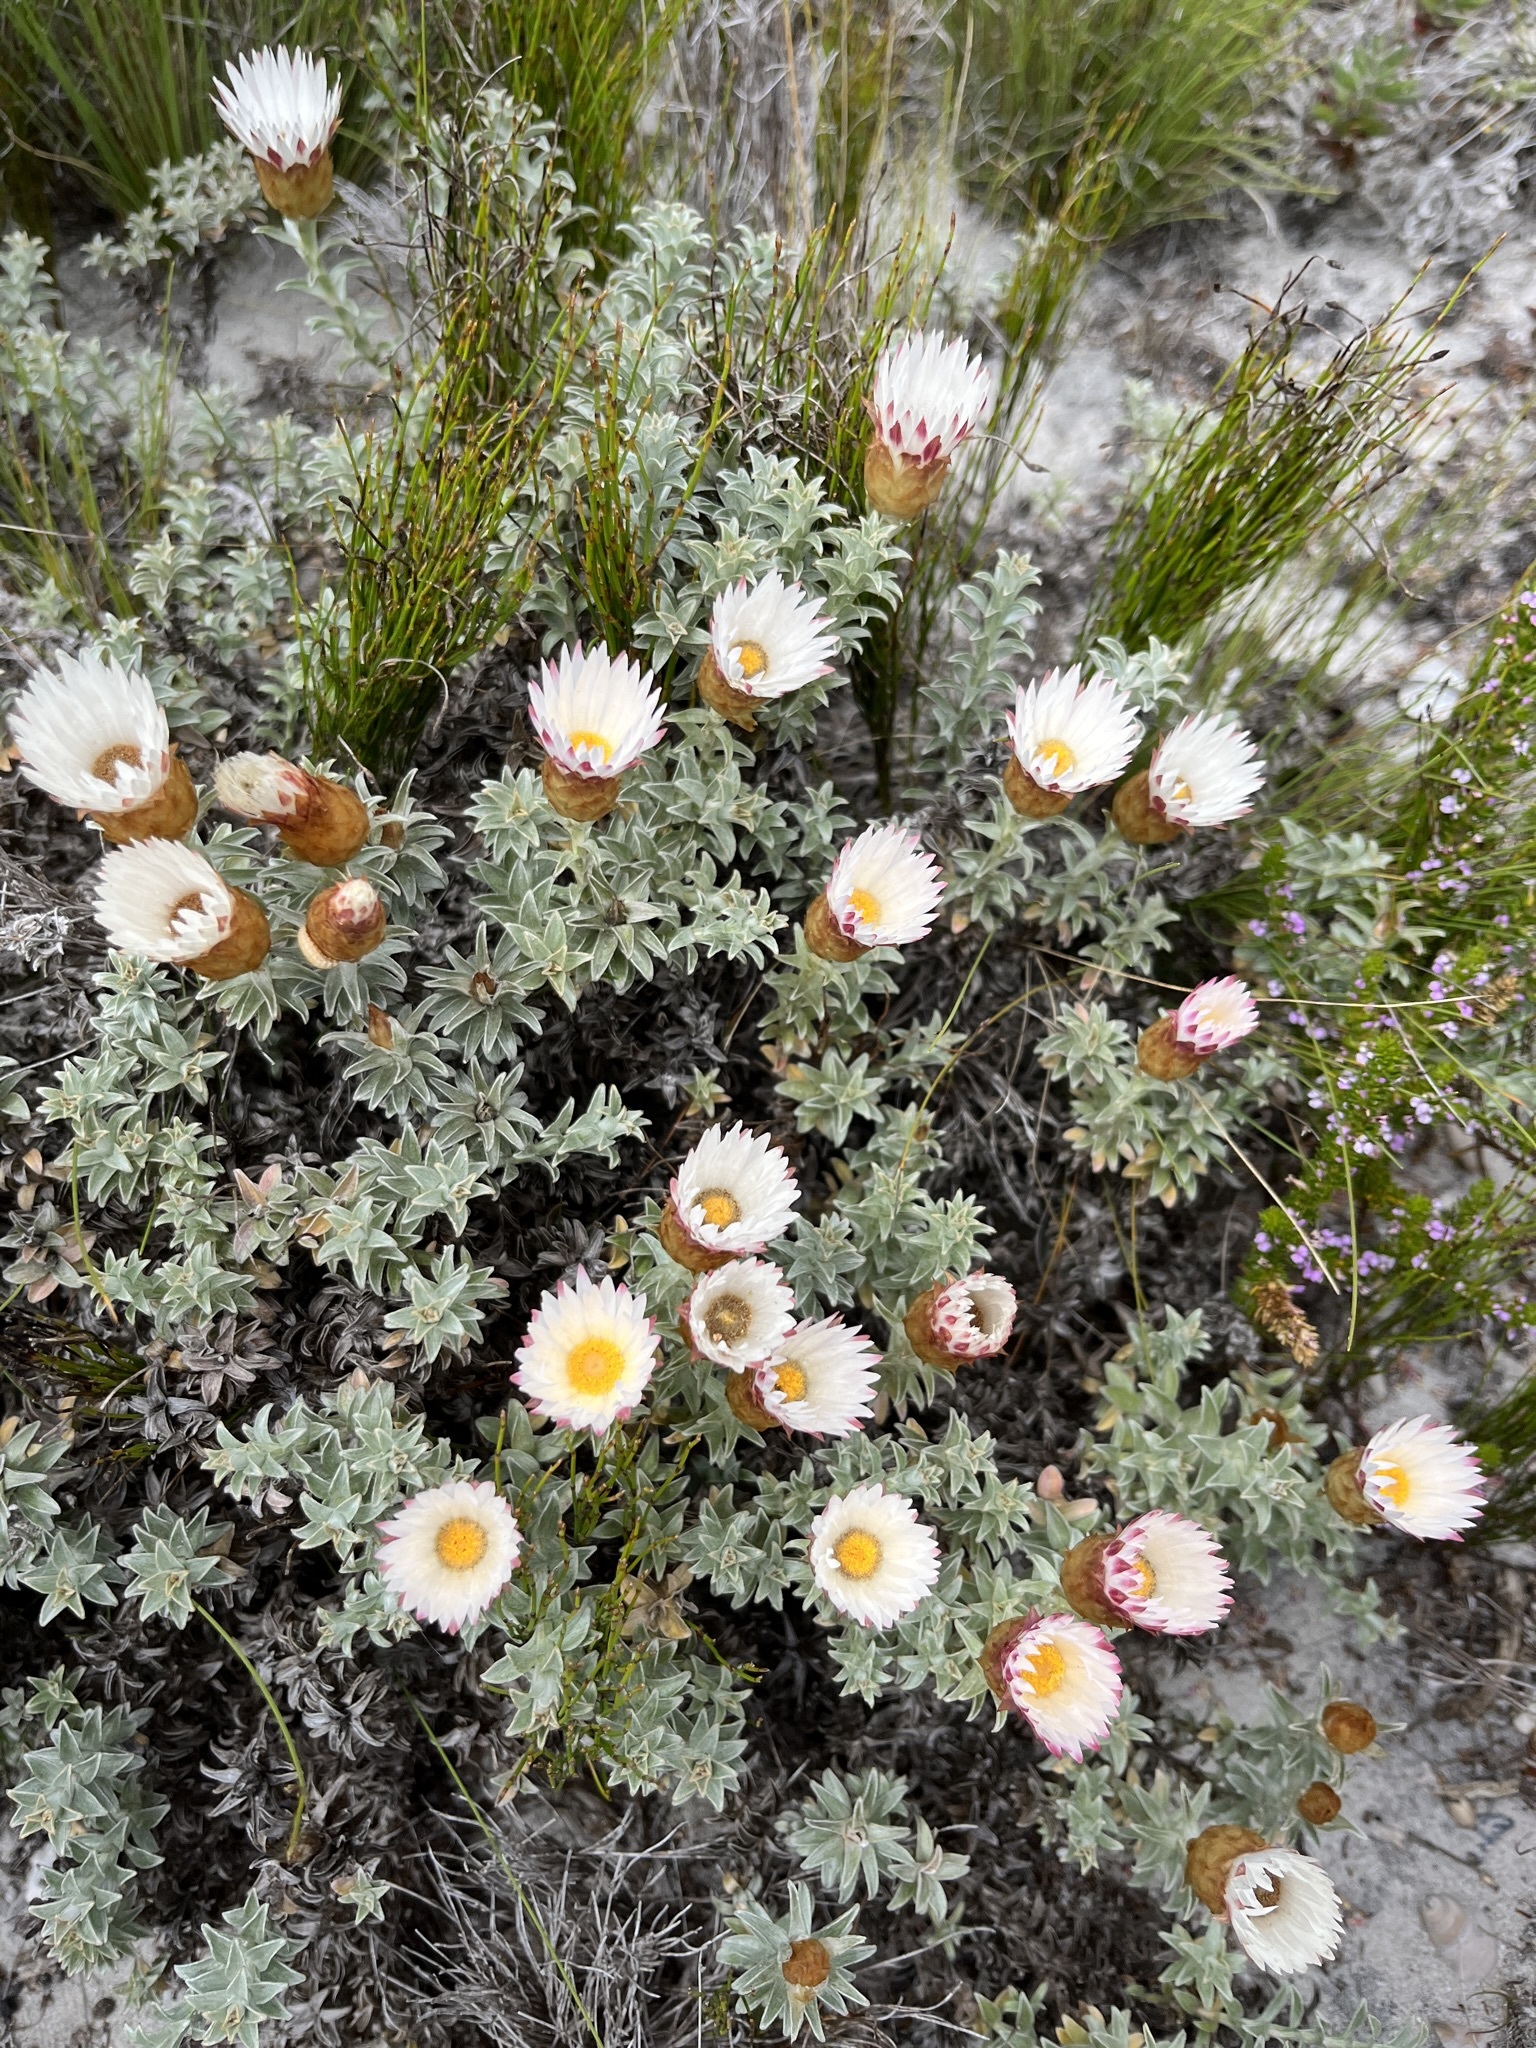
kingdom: Plantae
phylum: Tracheophyta
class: Magnoliopsida
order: Asterales
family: Asteraceae
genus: Helichrysum
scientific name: Helichrysum retortum
